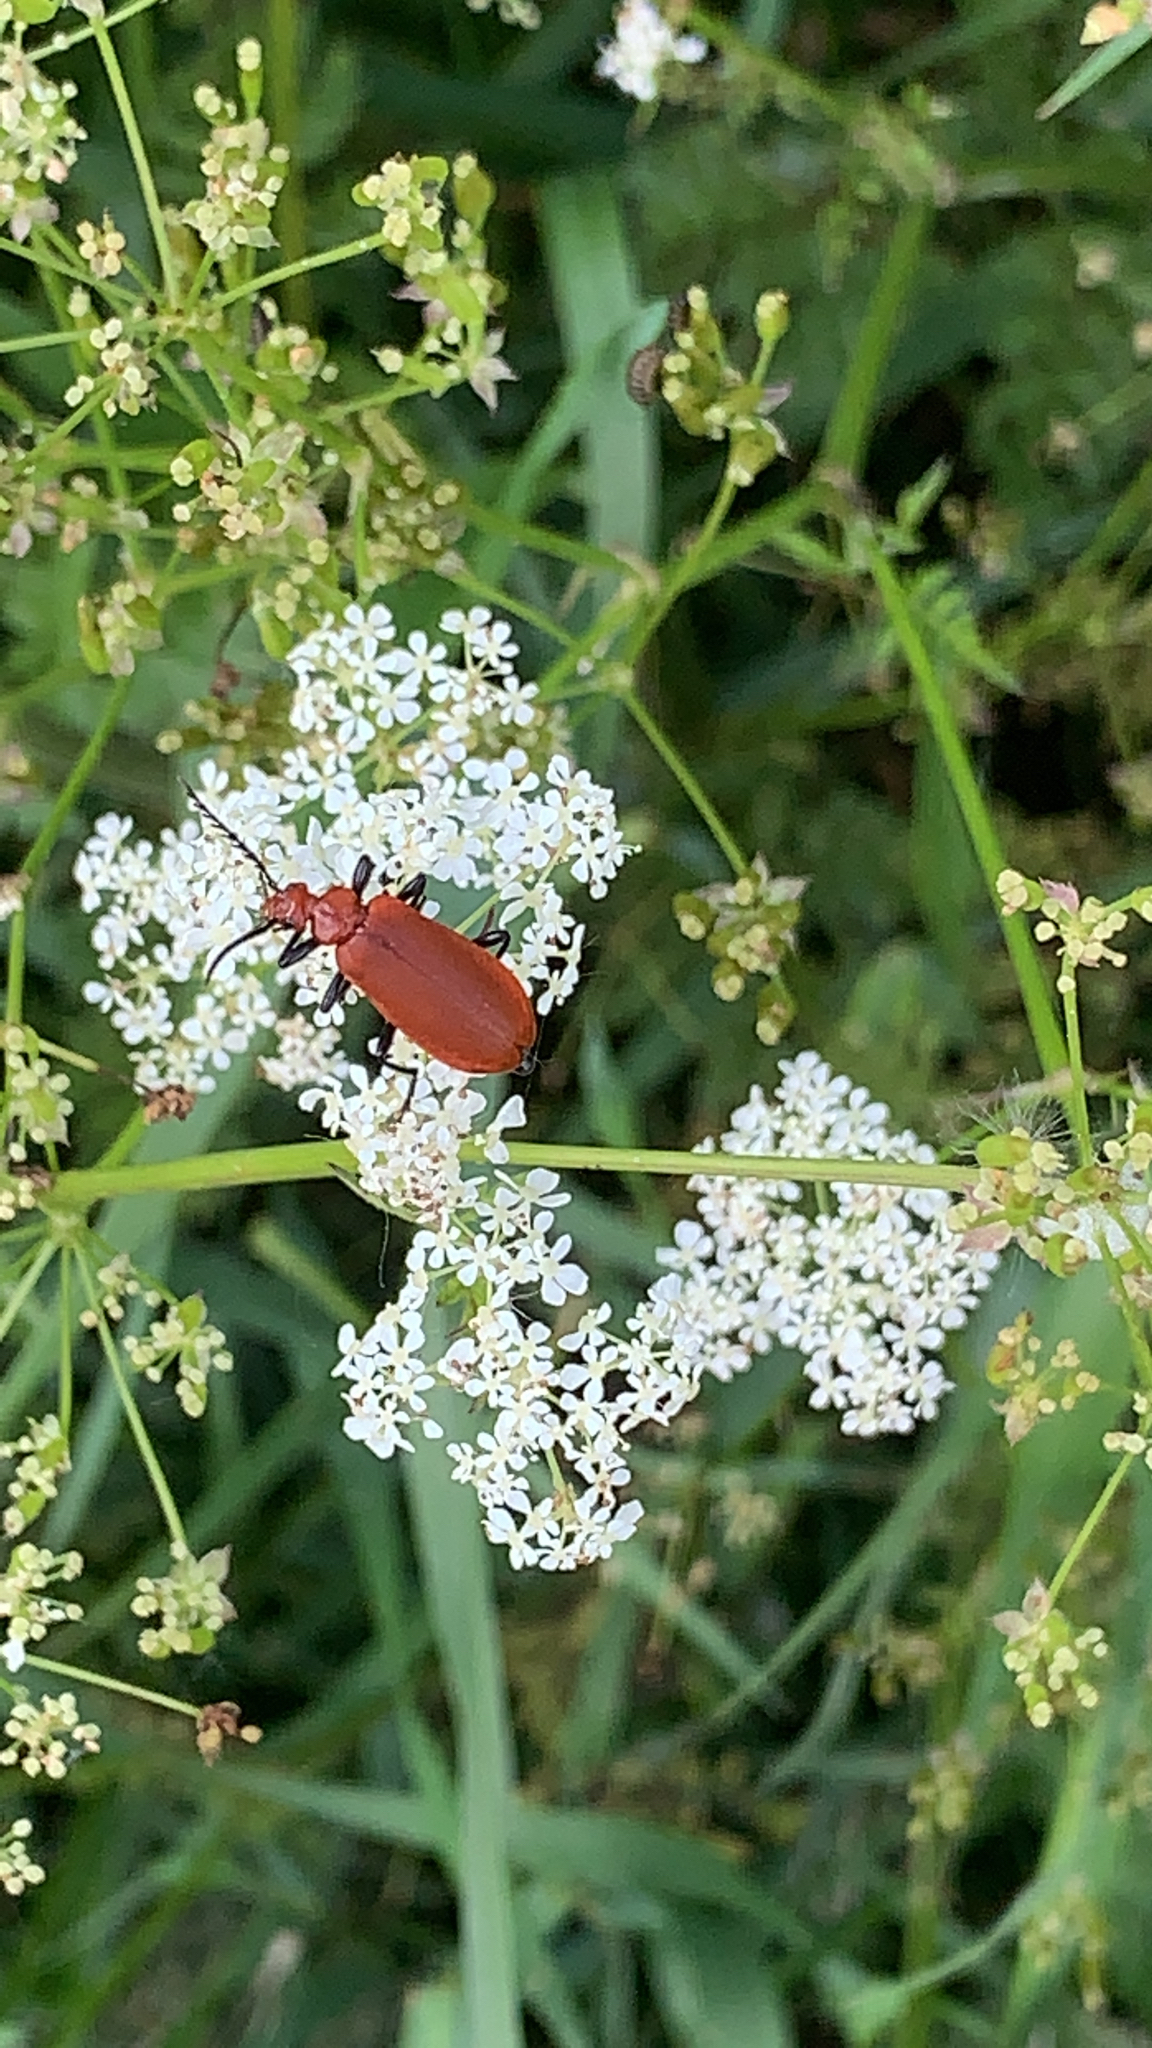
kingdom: Animalia
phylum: Arthropoda
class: Insecta
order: Coleoptera
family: Pyrochroidae
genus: Pyrochroa
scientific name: Pyrochroa serraticornis
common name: Red-headed cardinal beetle
